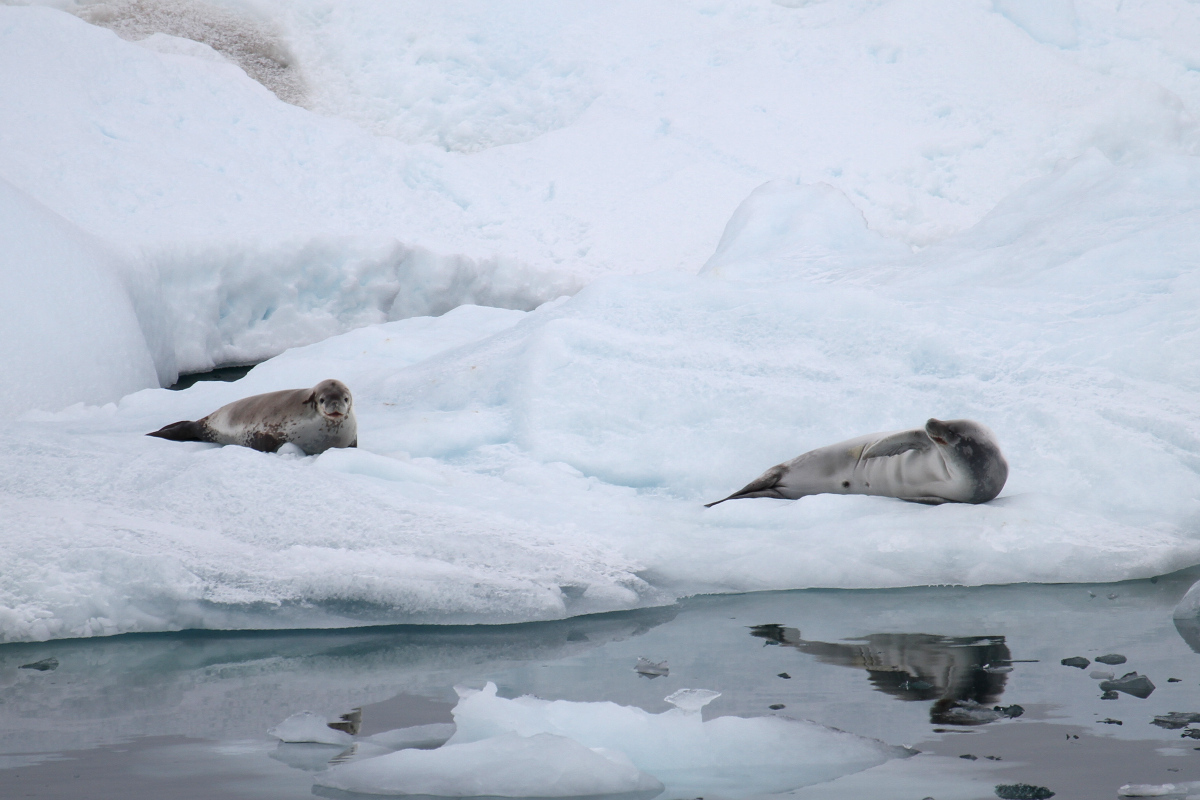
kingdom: Animalia
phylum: Chordata
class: Mammalia
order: Carnivora
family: Phocidae
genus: Lobodon
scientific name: Lobodon carcinophaga
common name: Crabeater seal
